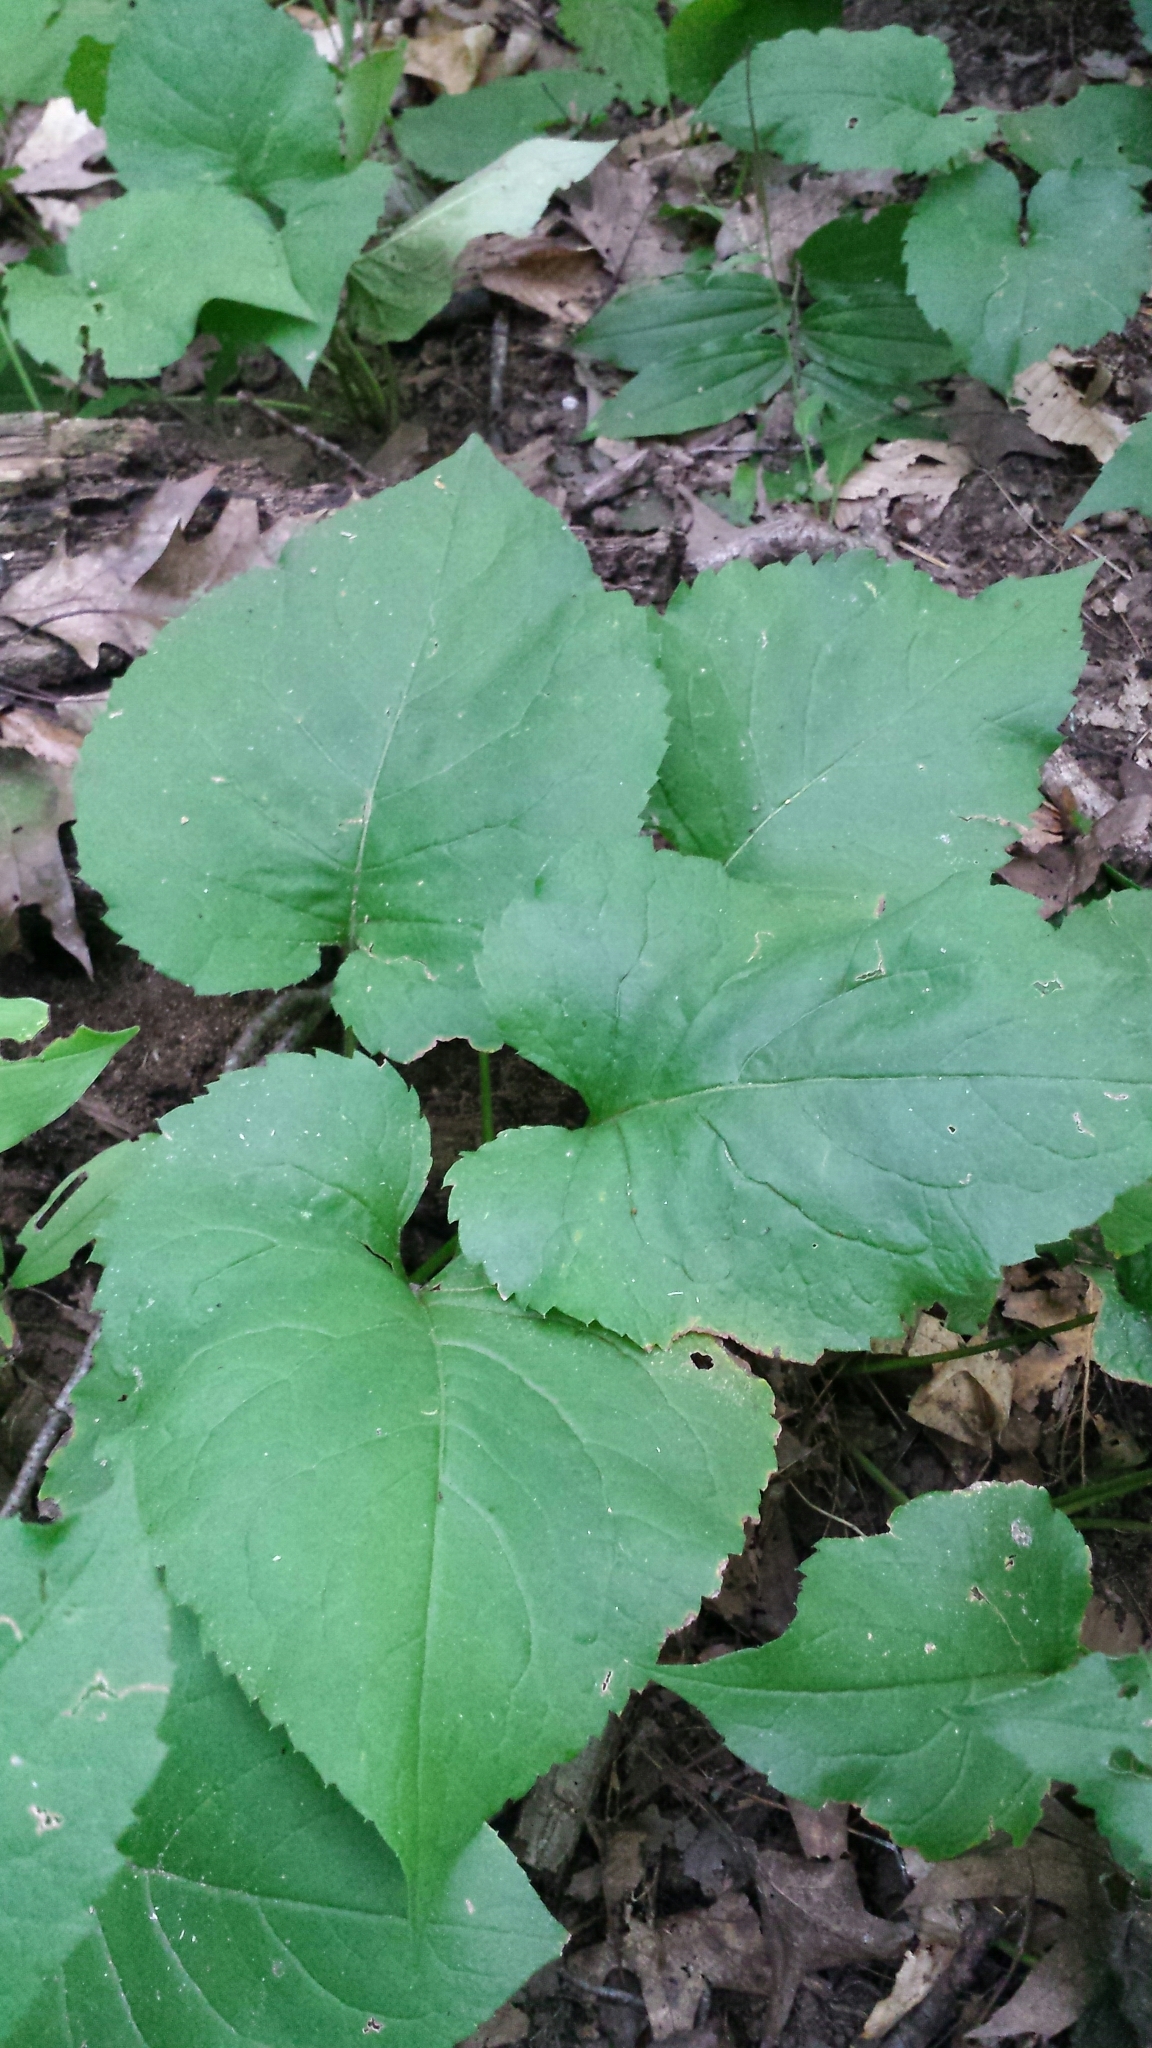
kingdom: Plantae
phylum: Tracheophyta
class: Magnoliopsida
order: Asterales
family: Asteraceae
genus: Eurybia
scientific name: Eurybia macrophylla
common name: Big-leaved aster
